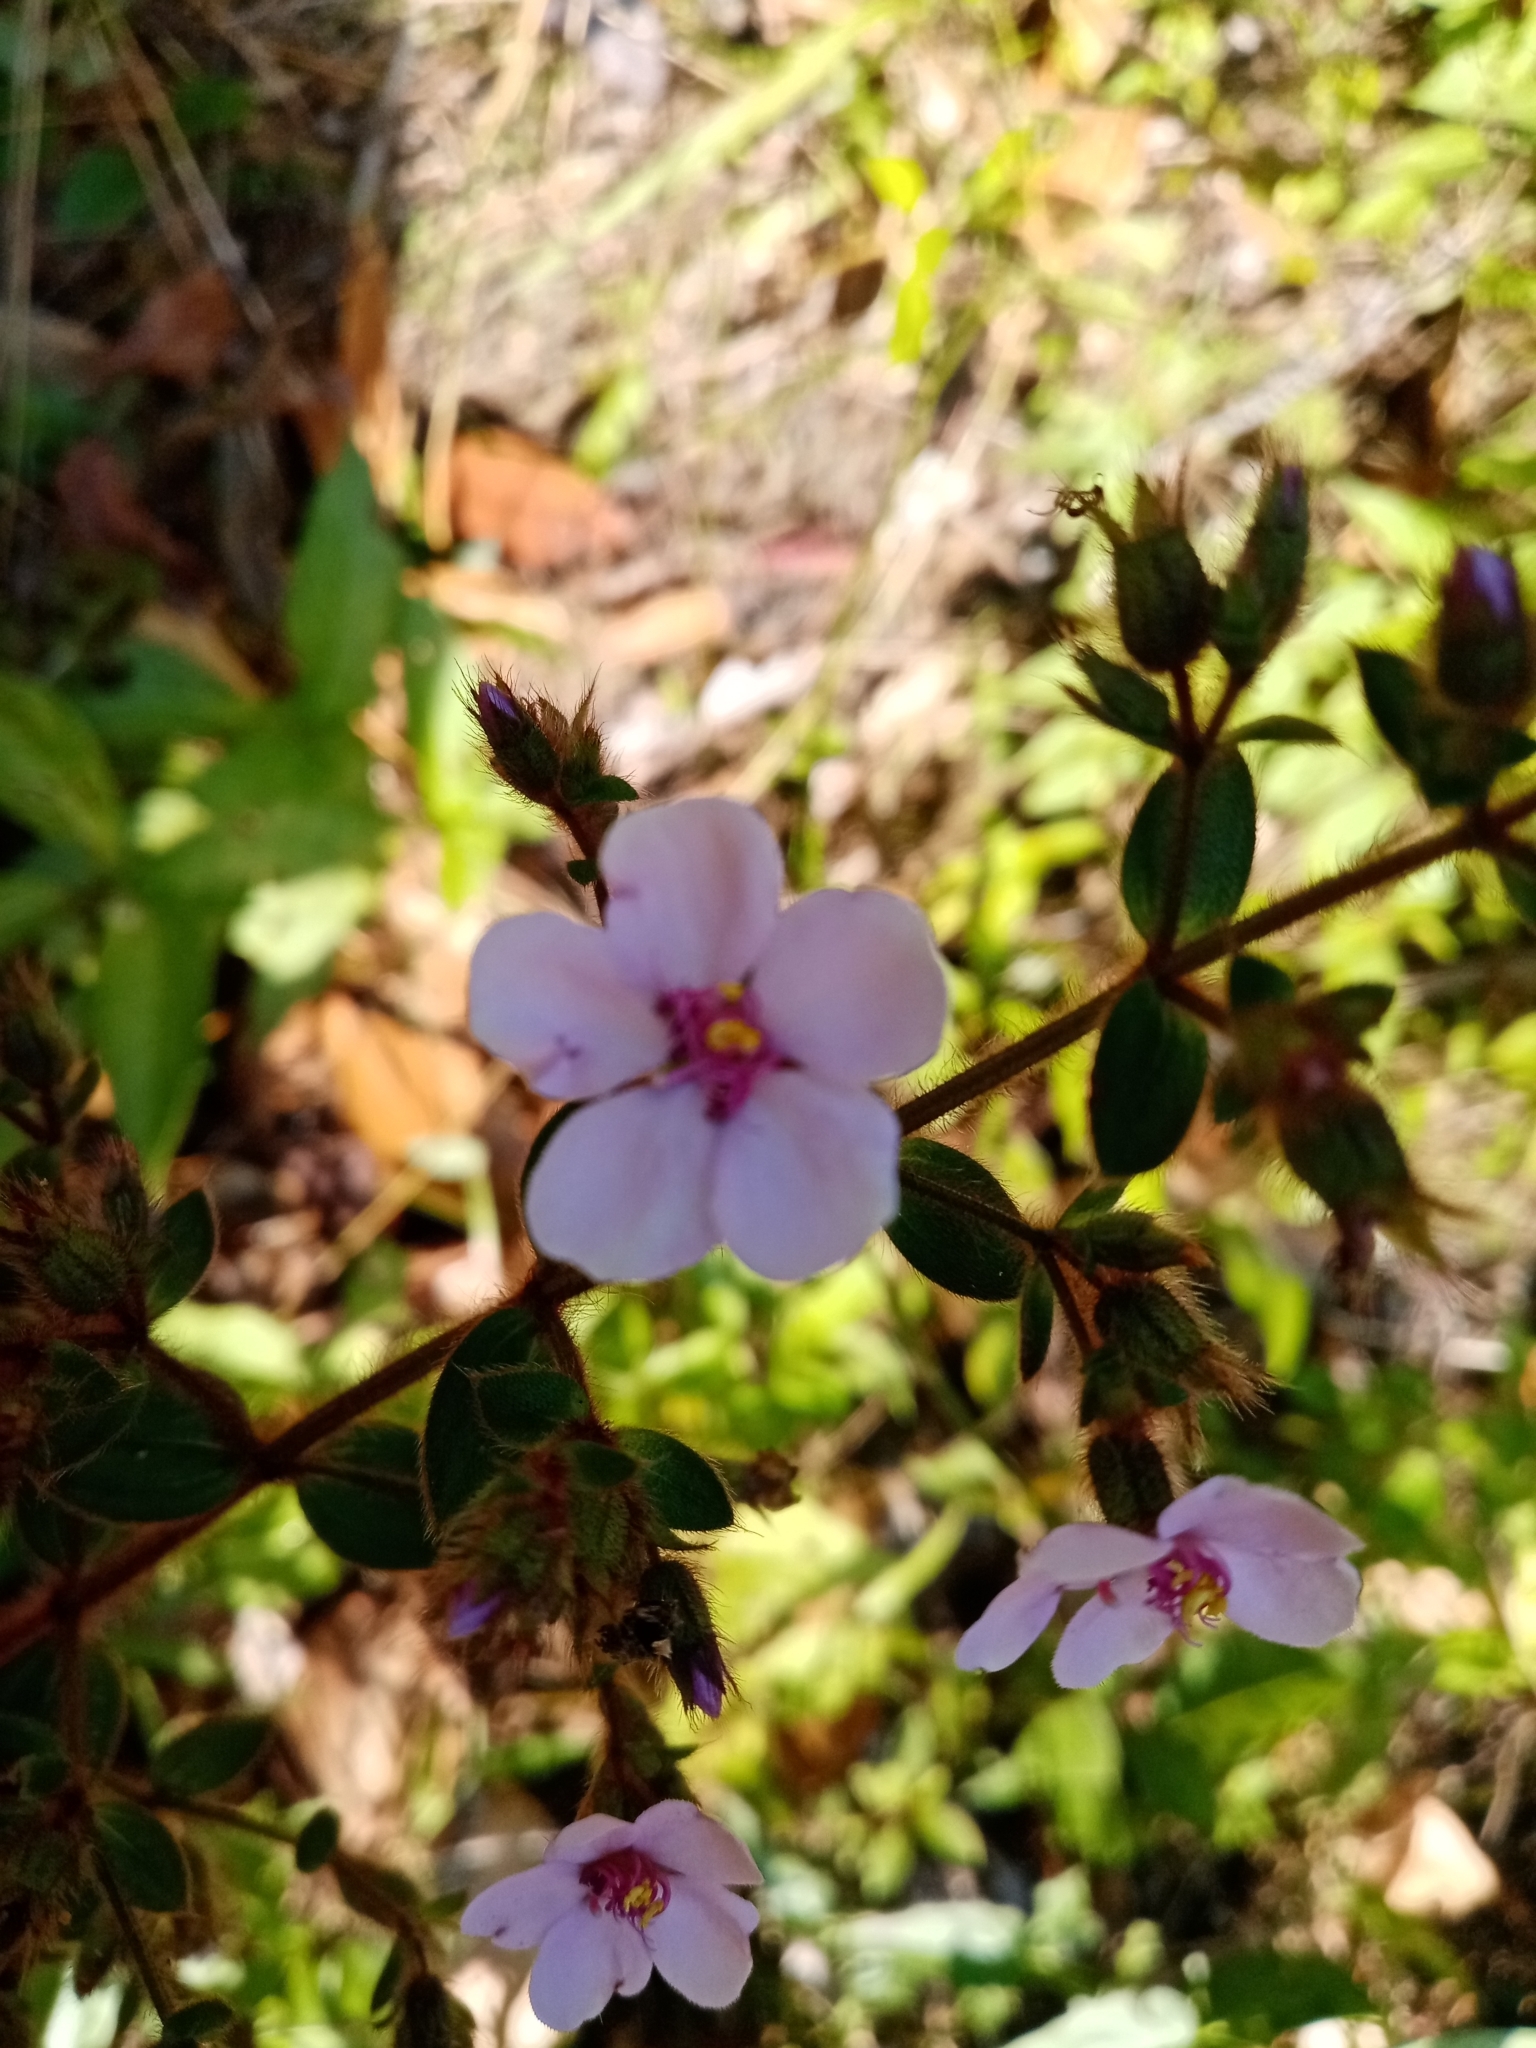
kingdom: Plantae
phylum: Tracheophyta
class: Magnoliopsida
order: Myrtales
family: Melastomataceae
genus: Desmoscelis
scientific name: Desmoscelis villosa
